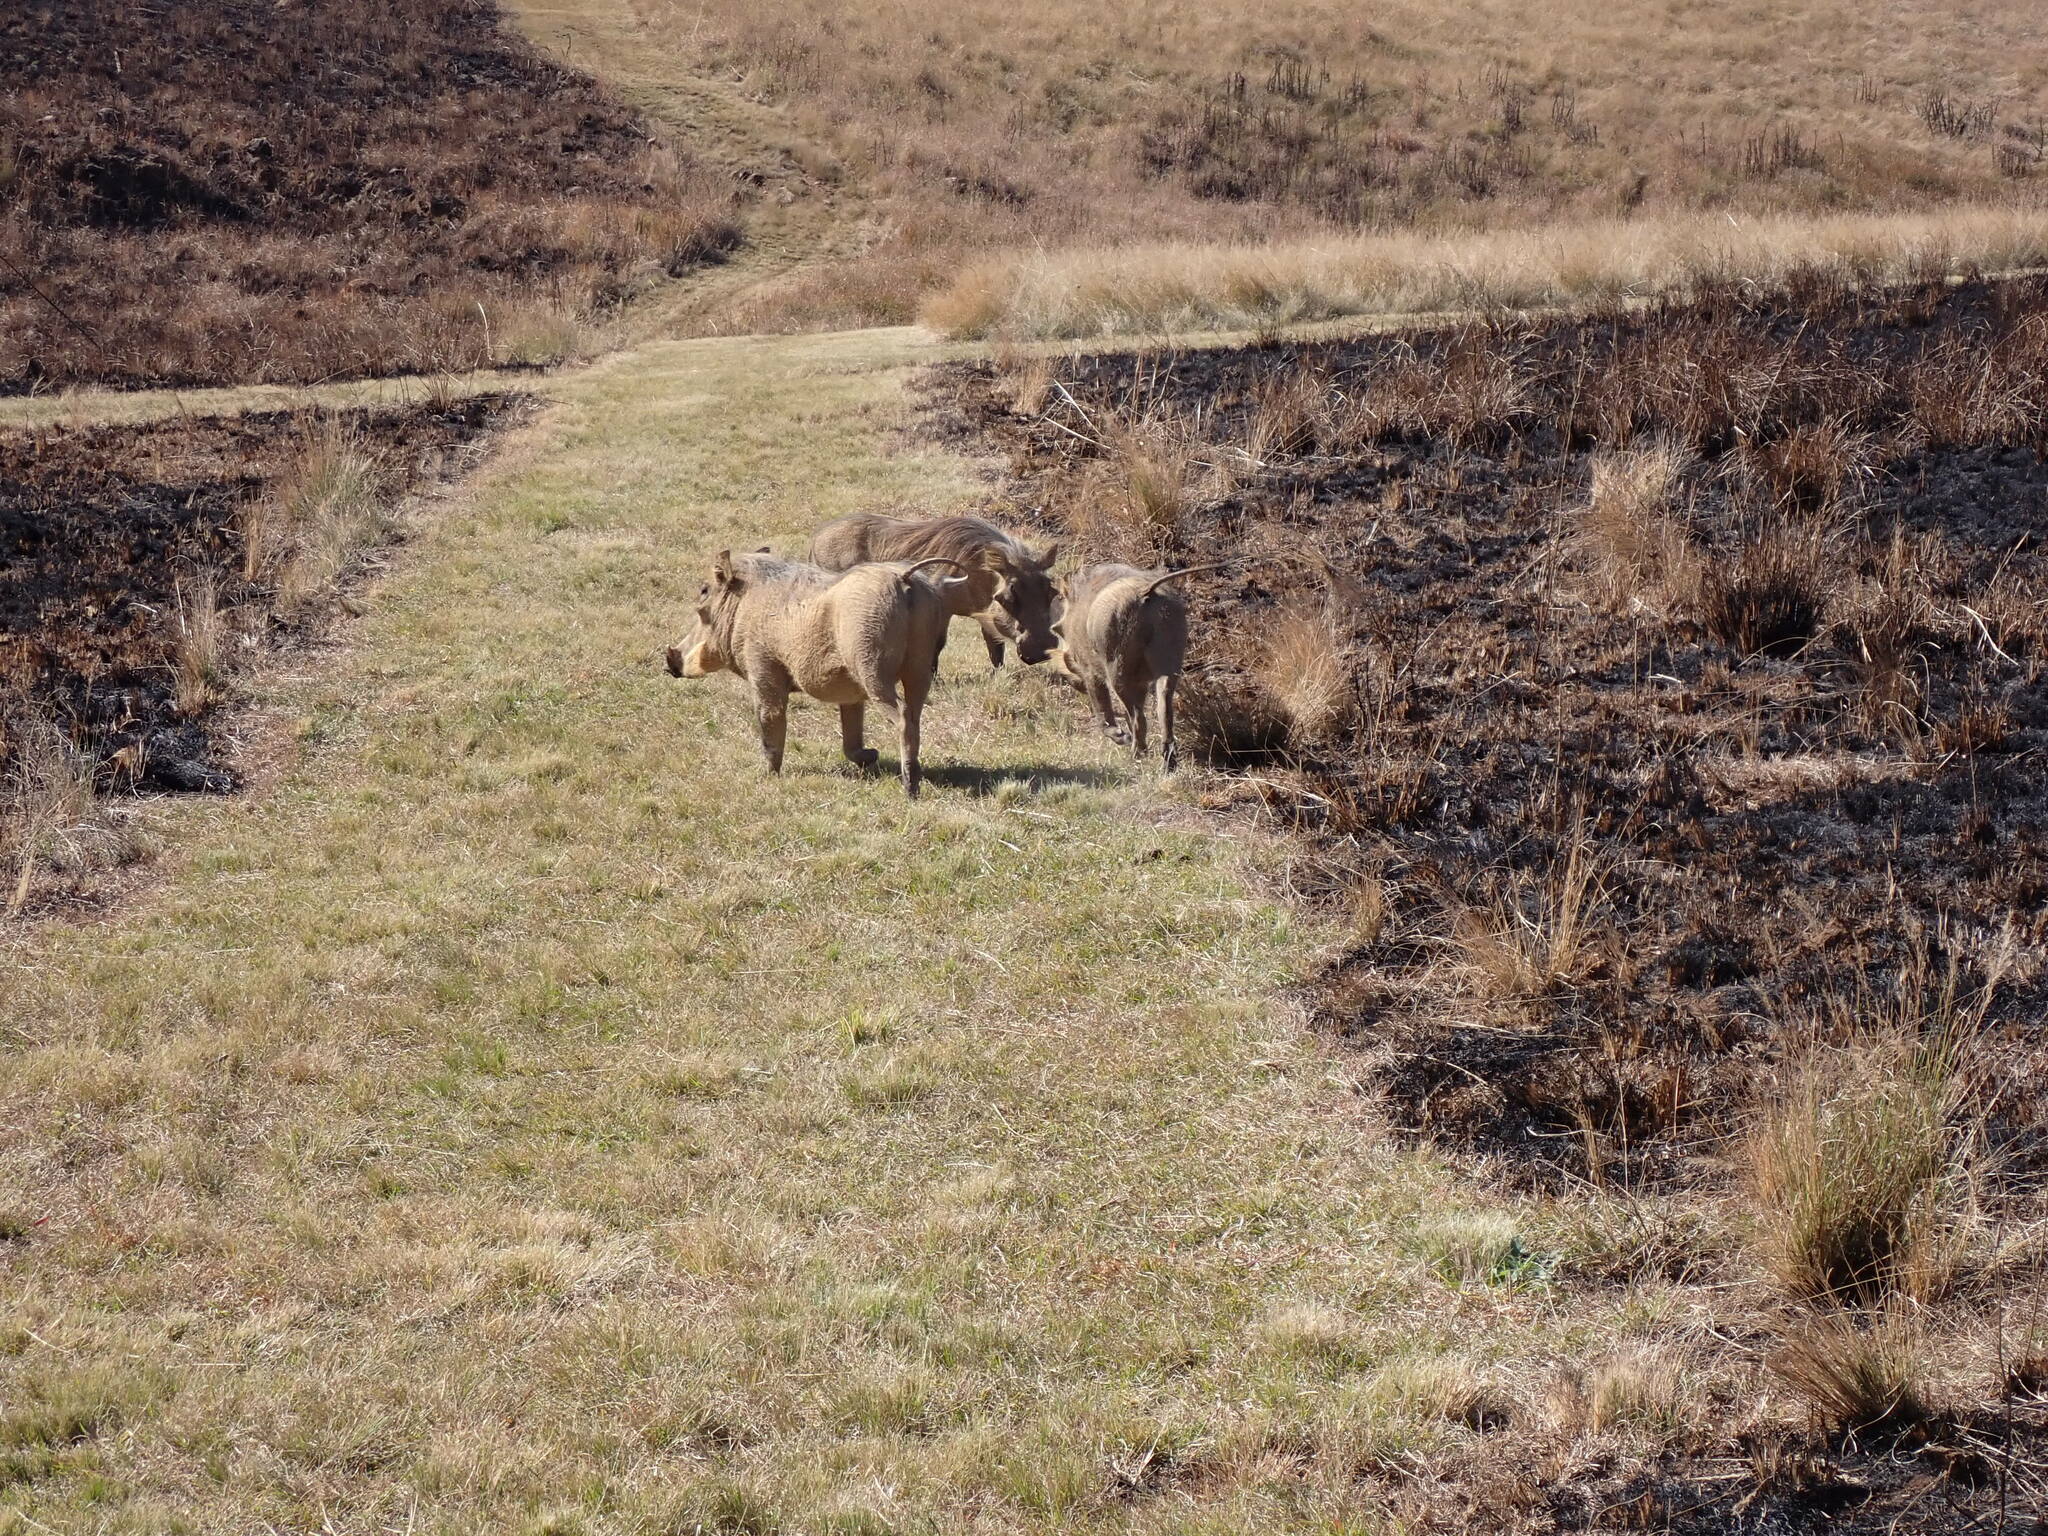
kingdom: Animalia
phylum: Chordata
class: Mammalia
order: Artiodactyla
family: Suidae
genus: Phacochoerus
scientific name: Phacochoerus africanus
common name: Common warthog
